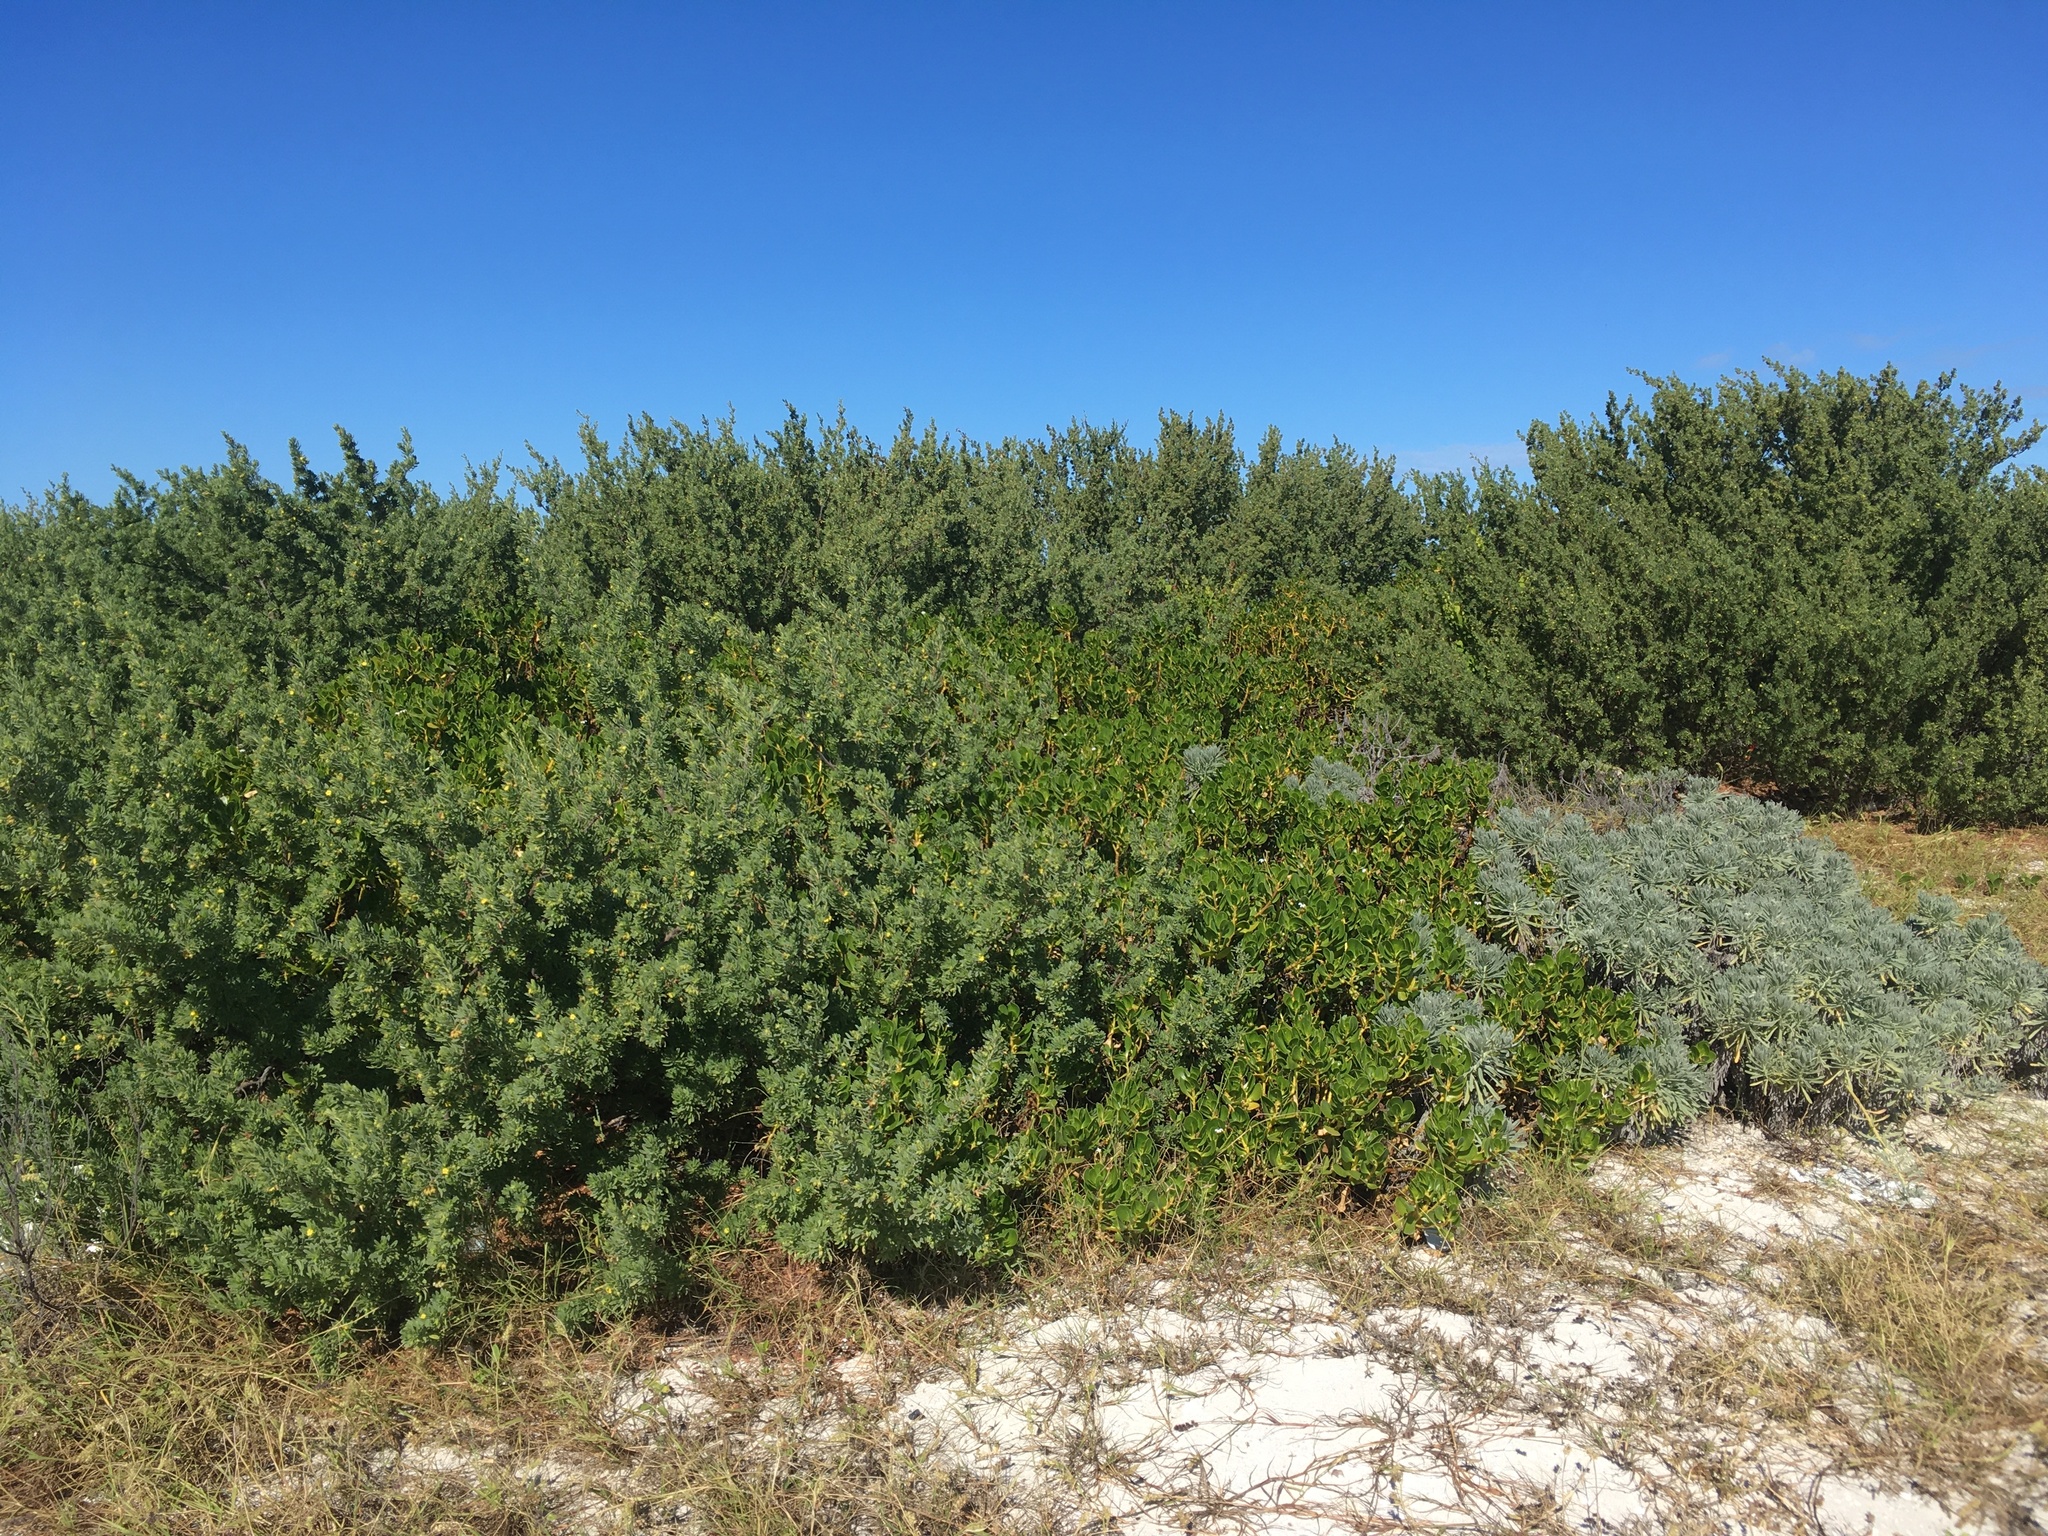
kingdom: Plantae
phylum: Tracheophyta
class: Magnoliopsida
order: Fabales
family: Surianaceae
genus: Suriana
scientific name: Suriana maritima
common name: Bay-cedar
